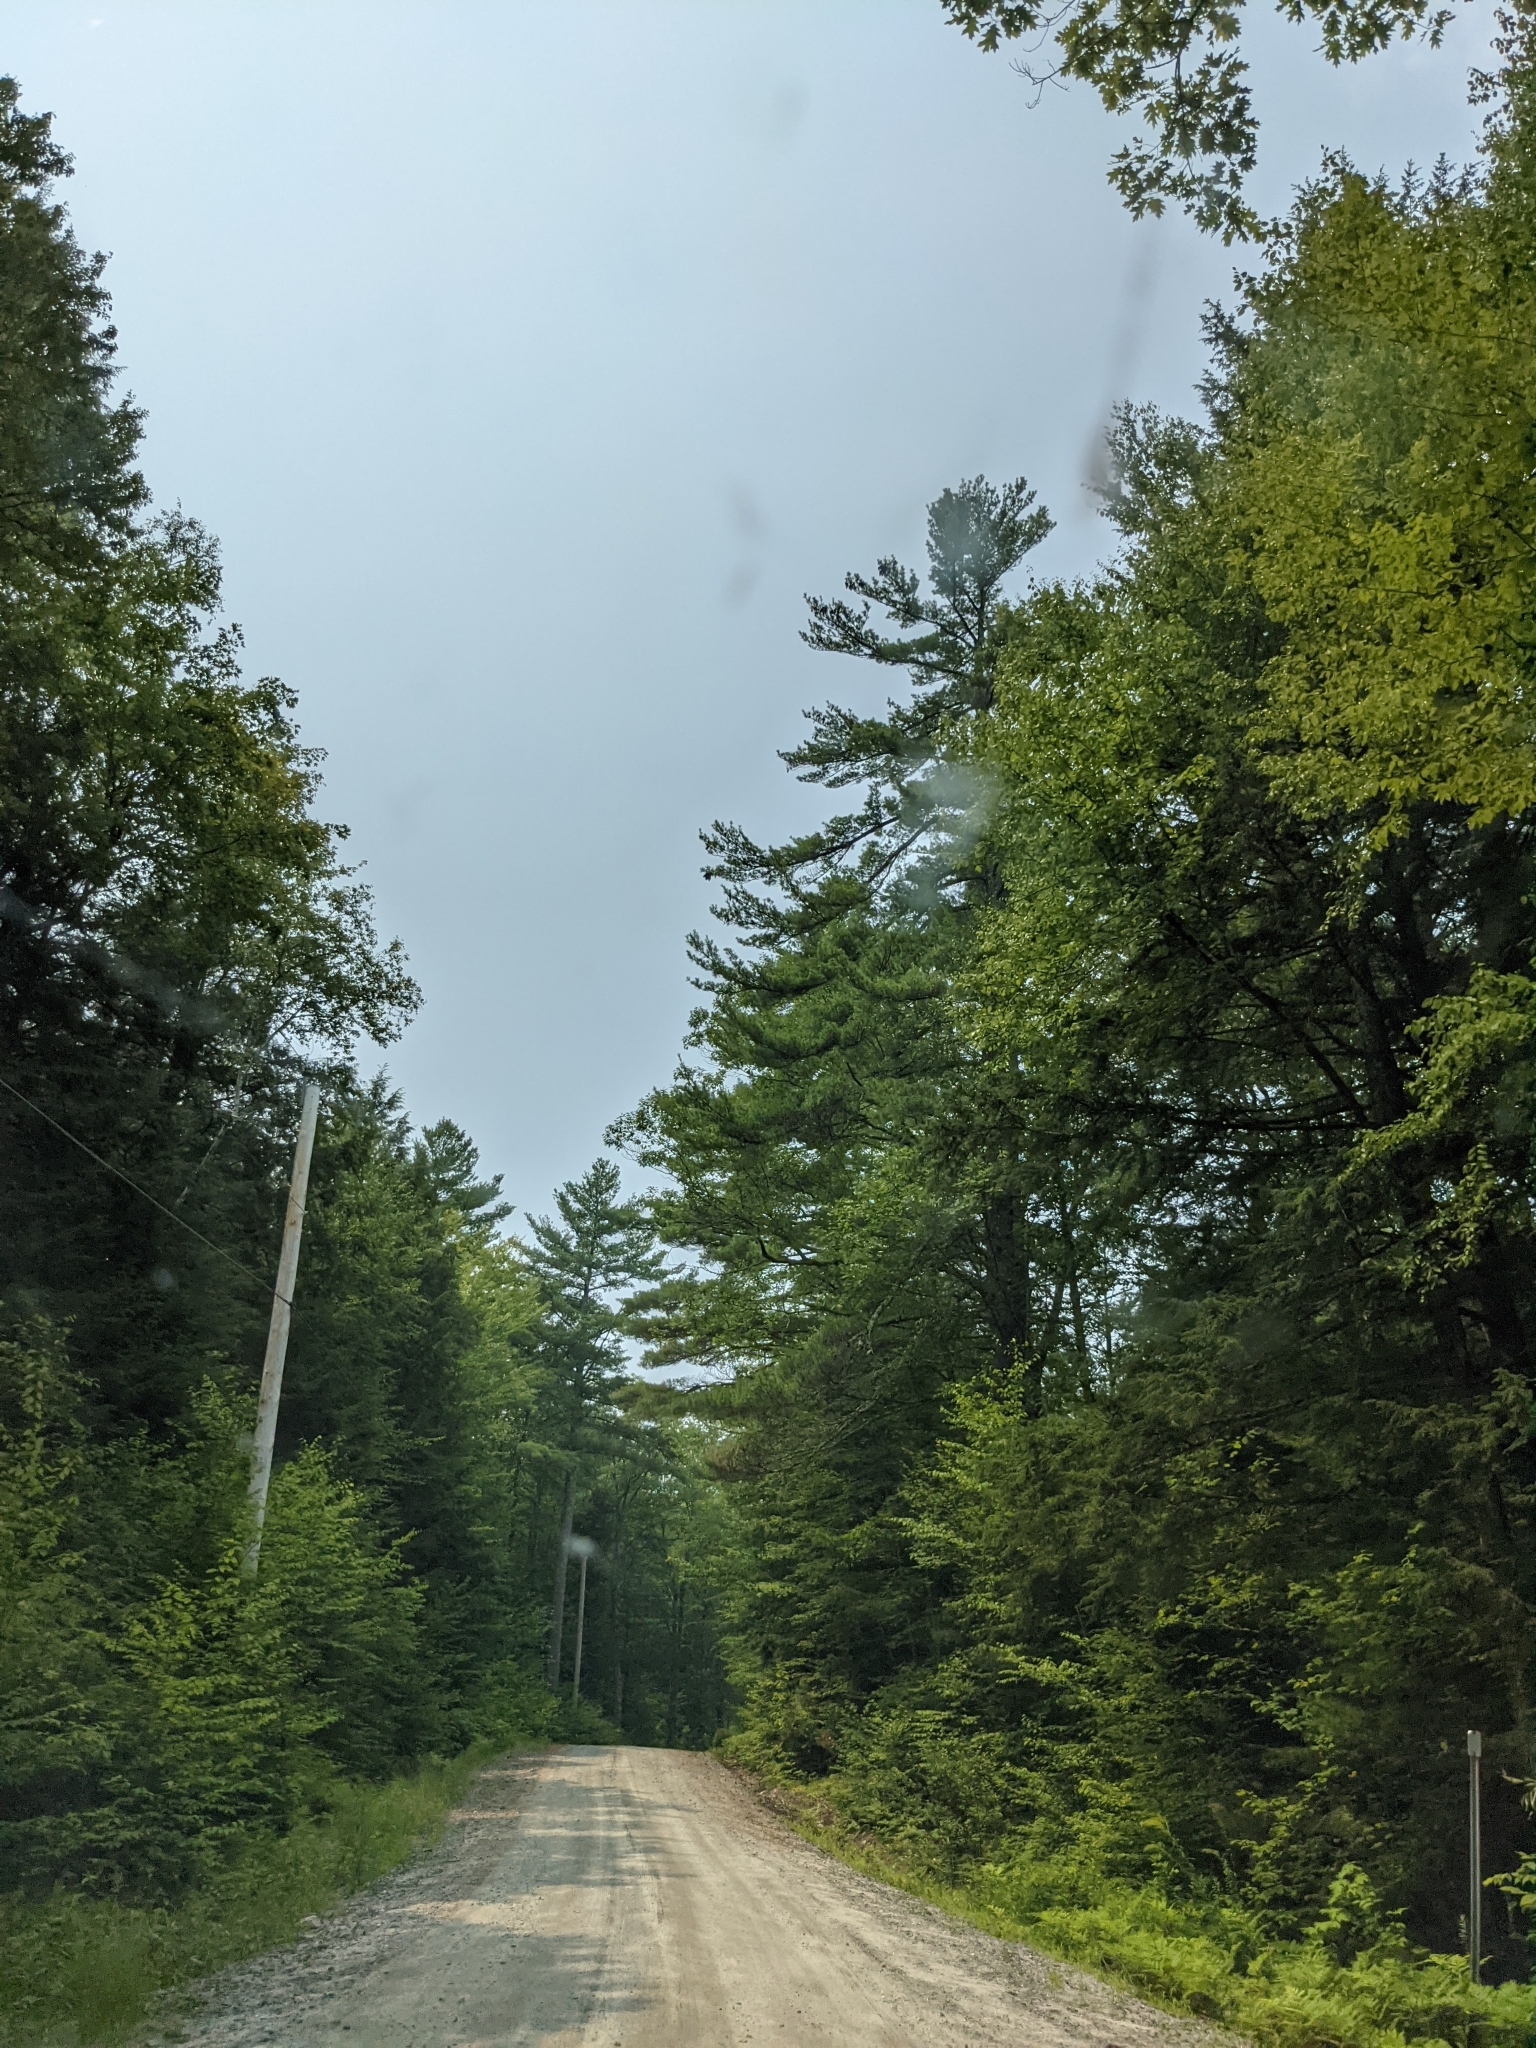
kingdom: Plantae
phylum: Tracheophyta
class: Pinopsida
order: Pinales
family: Pinaceae
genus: Pinus
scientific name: Pinus strobus
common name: Weymouth pine
